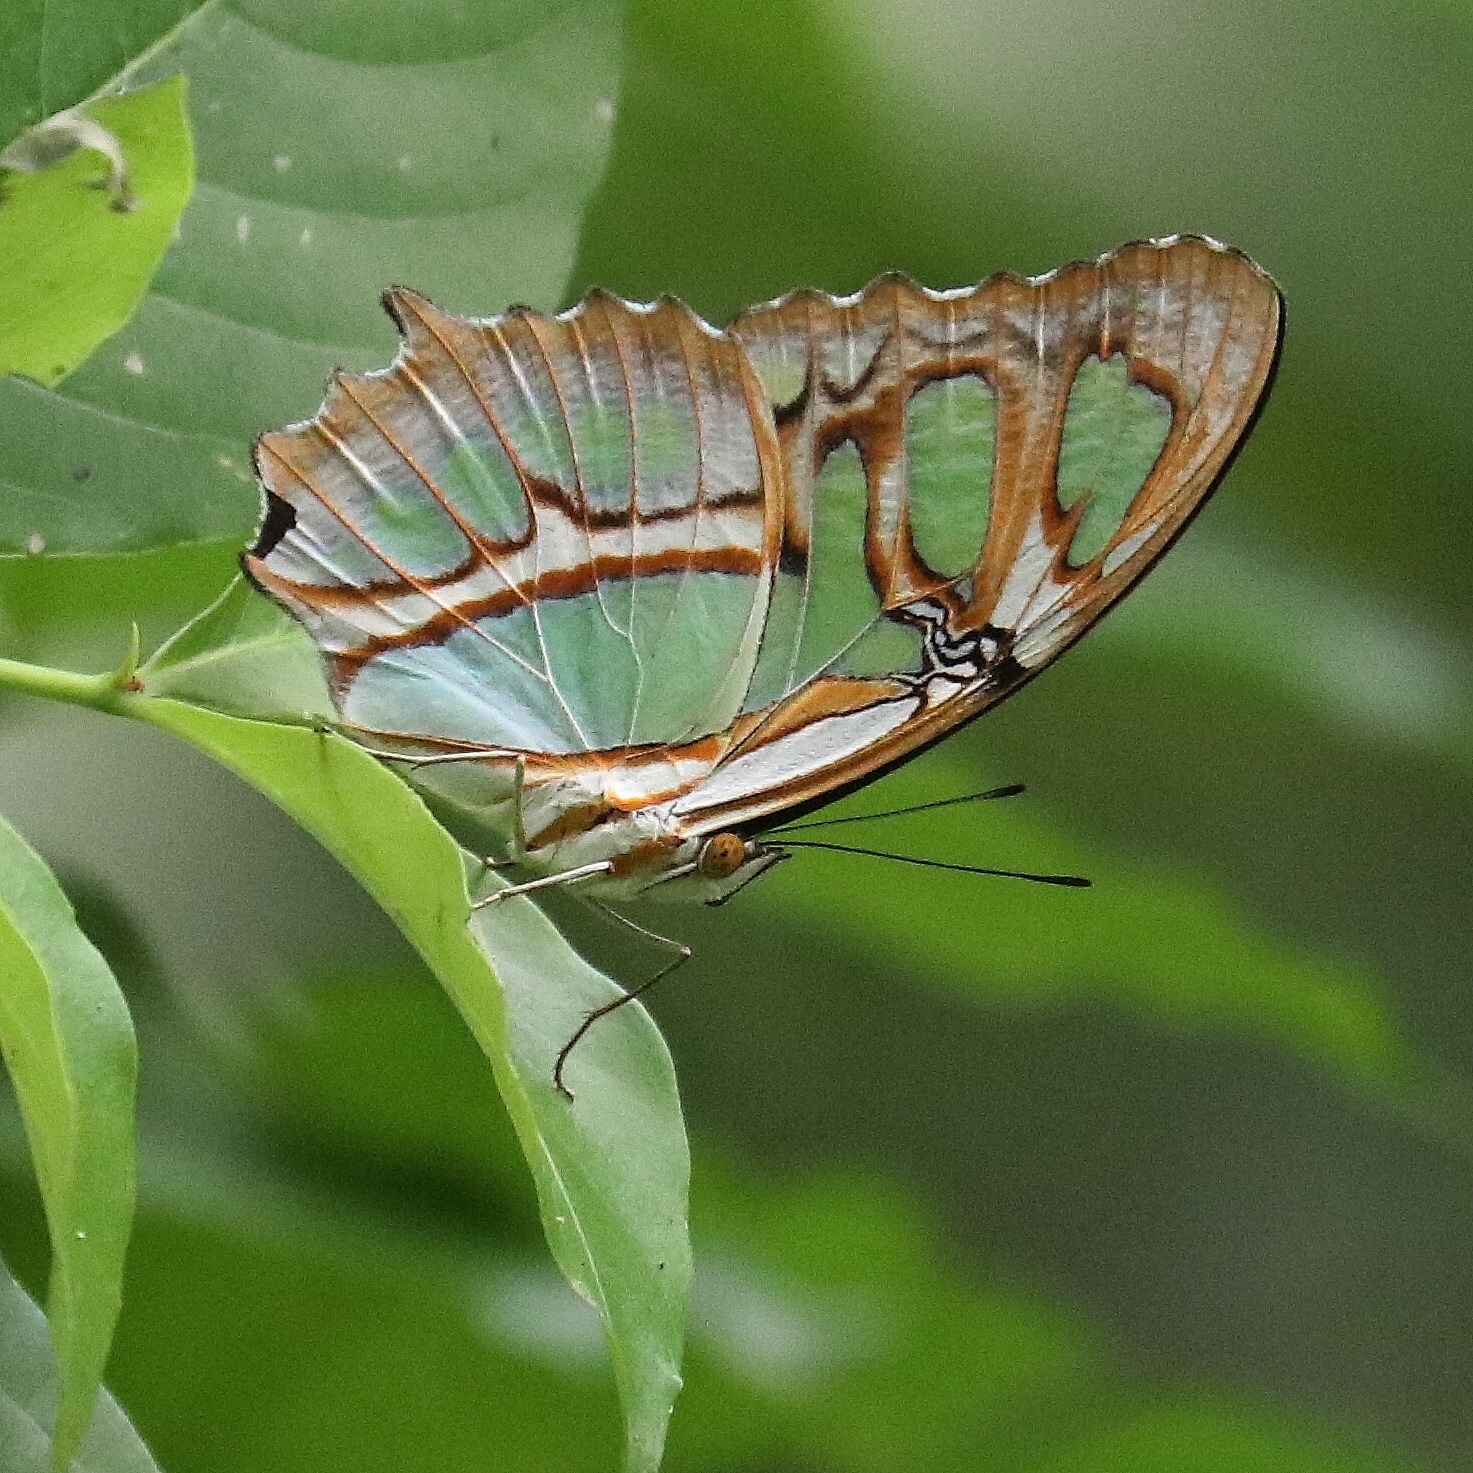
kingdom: Animalia
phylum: Arthropoda
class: Insecta
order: Lepidoptera
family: Nymphalidae
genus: Siproeta
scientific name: Siproeta stelenes
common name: Malachite
